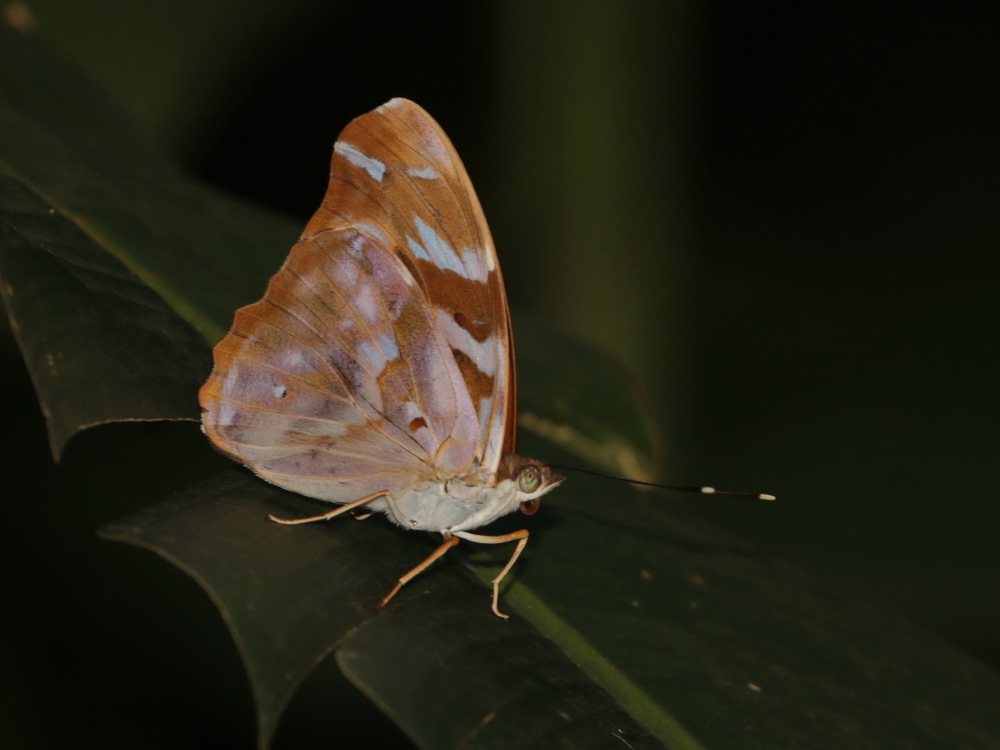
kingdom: Animalia
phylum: Arthropoda
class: Insecta
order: Lepidoptera
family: Nymphalidae
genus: Herona
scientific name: Herona marathus
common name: Yellow pasha
